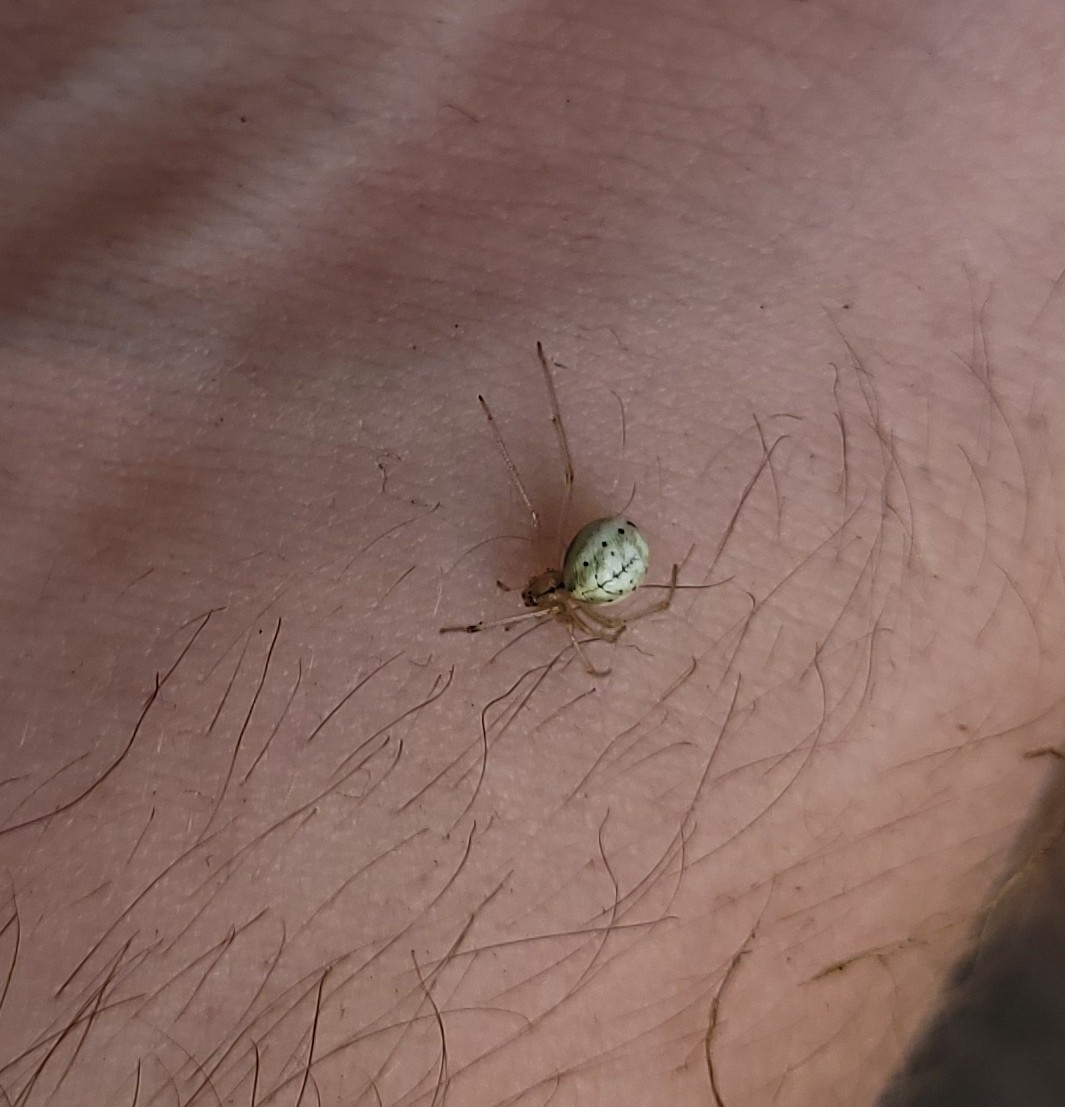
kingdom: Animalia
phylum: Arthropoda
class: Arachnida
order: Araneae
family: Theridiidae
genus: Enoplognatha
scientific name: Enoplognatha ovata
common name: Common candy-striped spider
